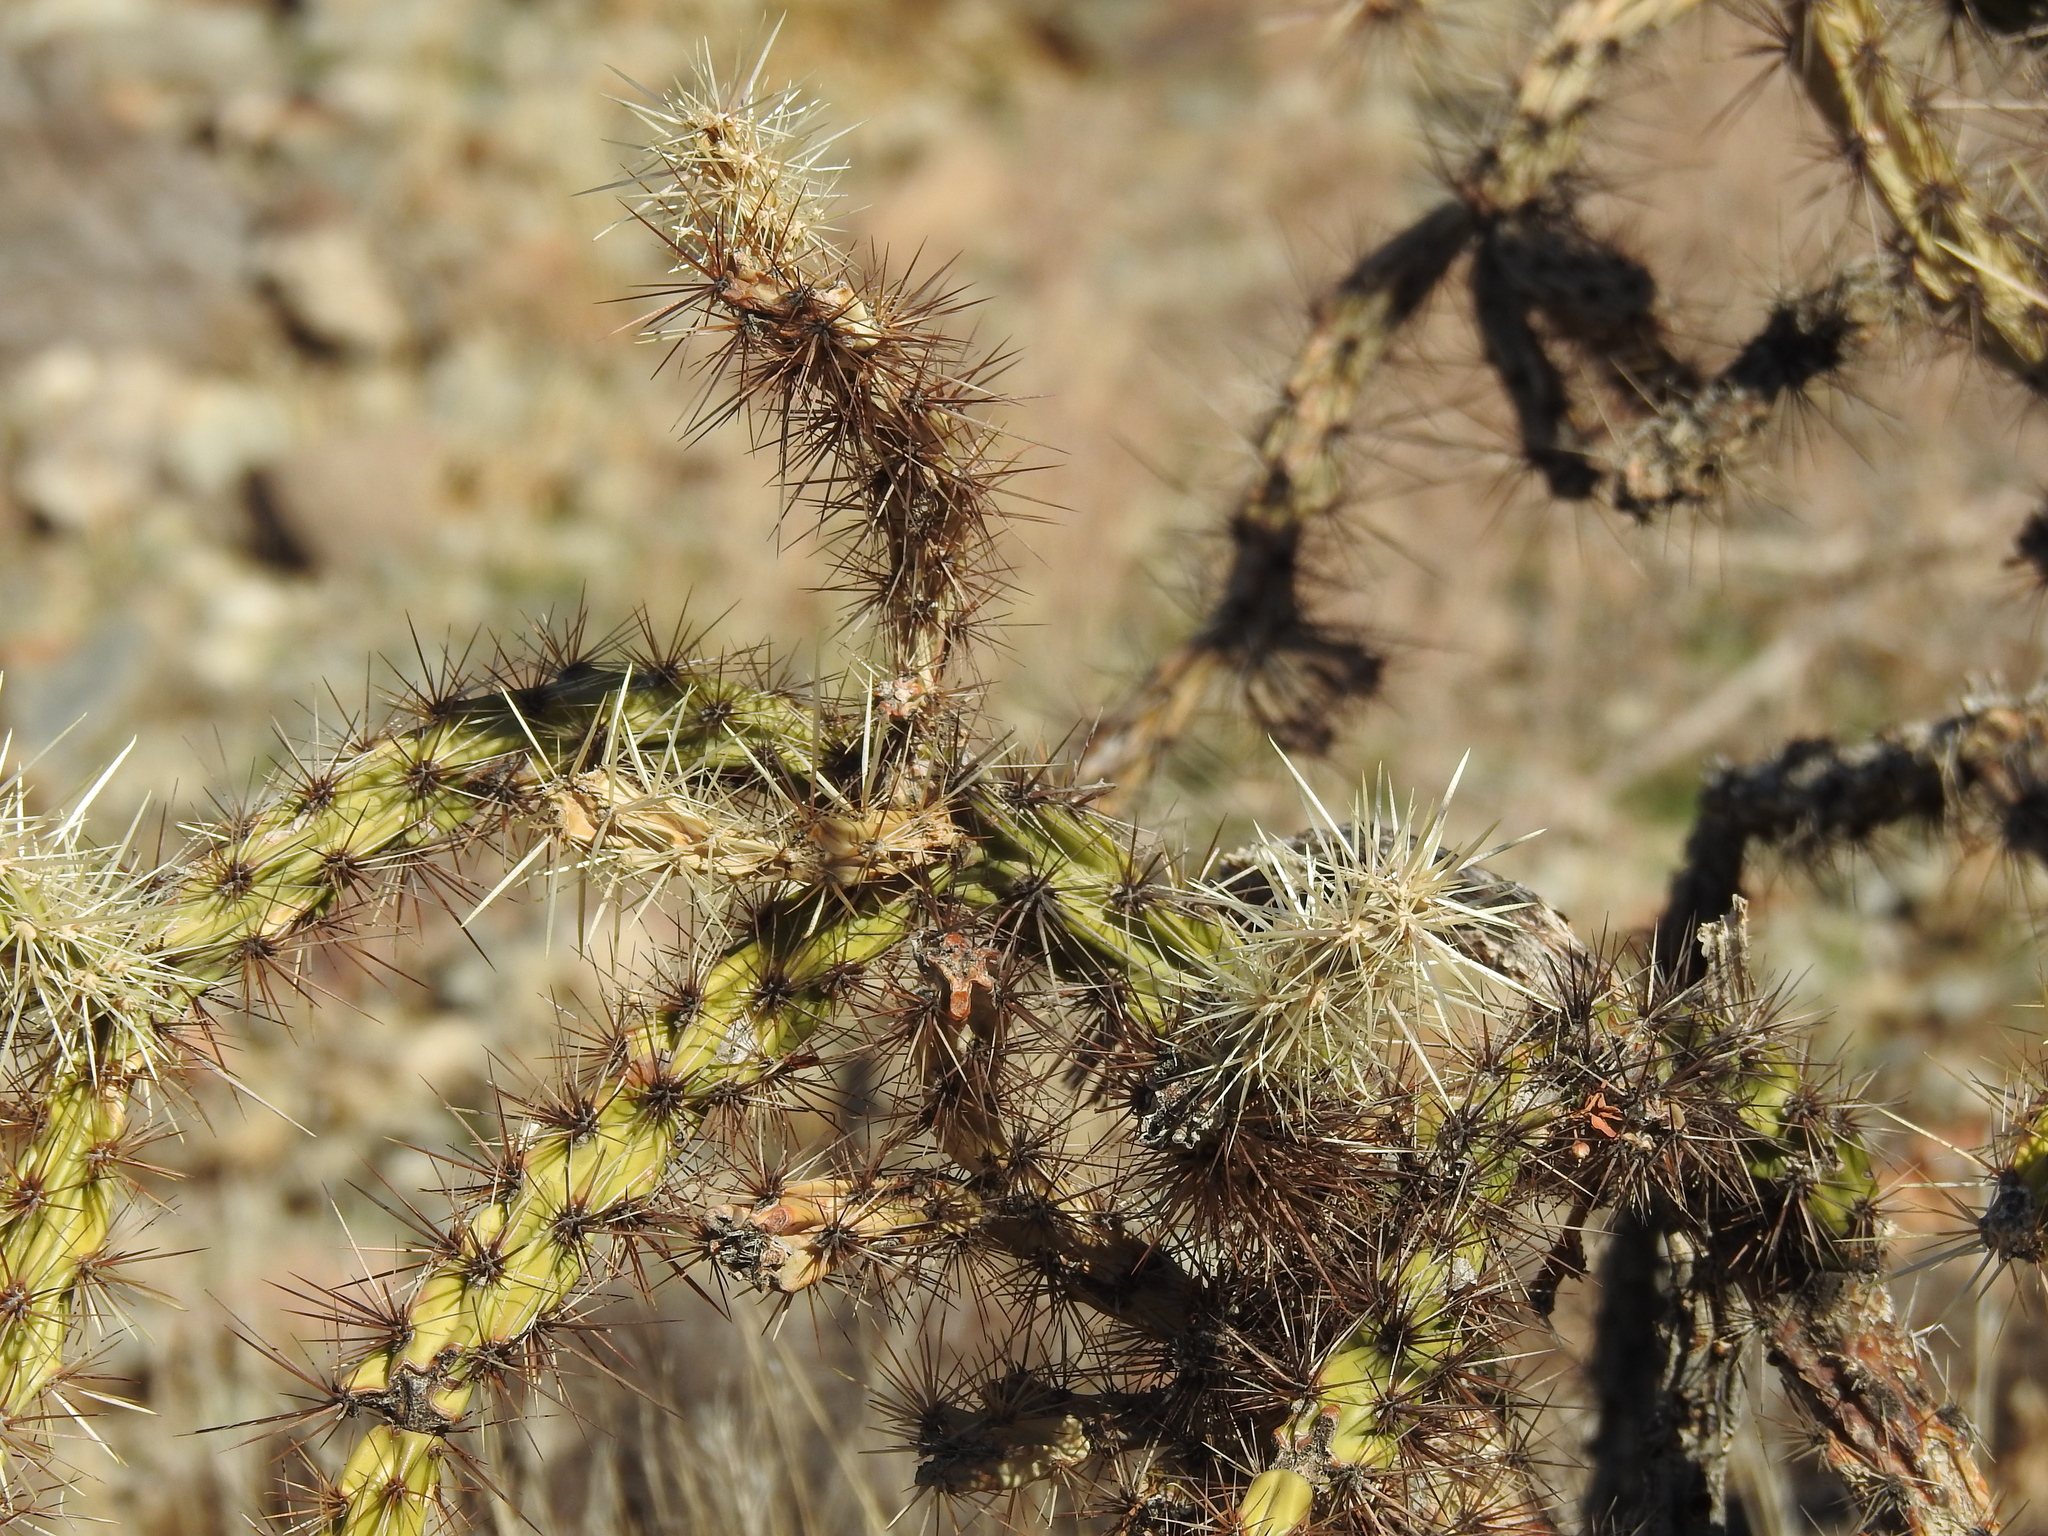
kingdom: Plantae
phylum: Tracheophyta
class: Magnoliopsida
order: Caryophyllales
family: Cactaceae
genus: Cylindropuntia
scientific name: Cylindropuntia acanthocarpa
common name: Buckhorn cholla
